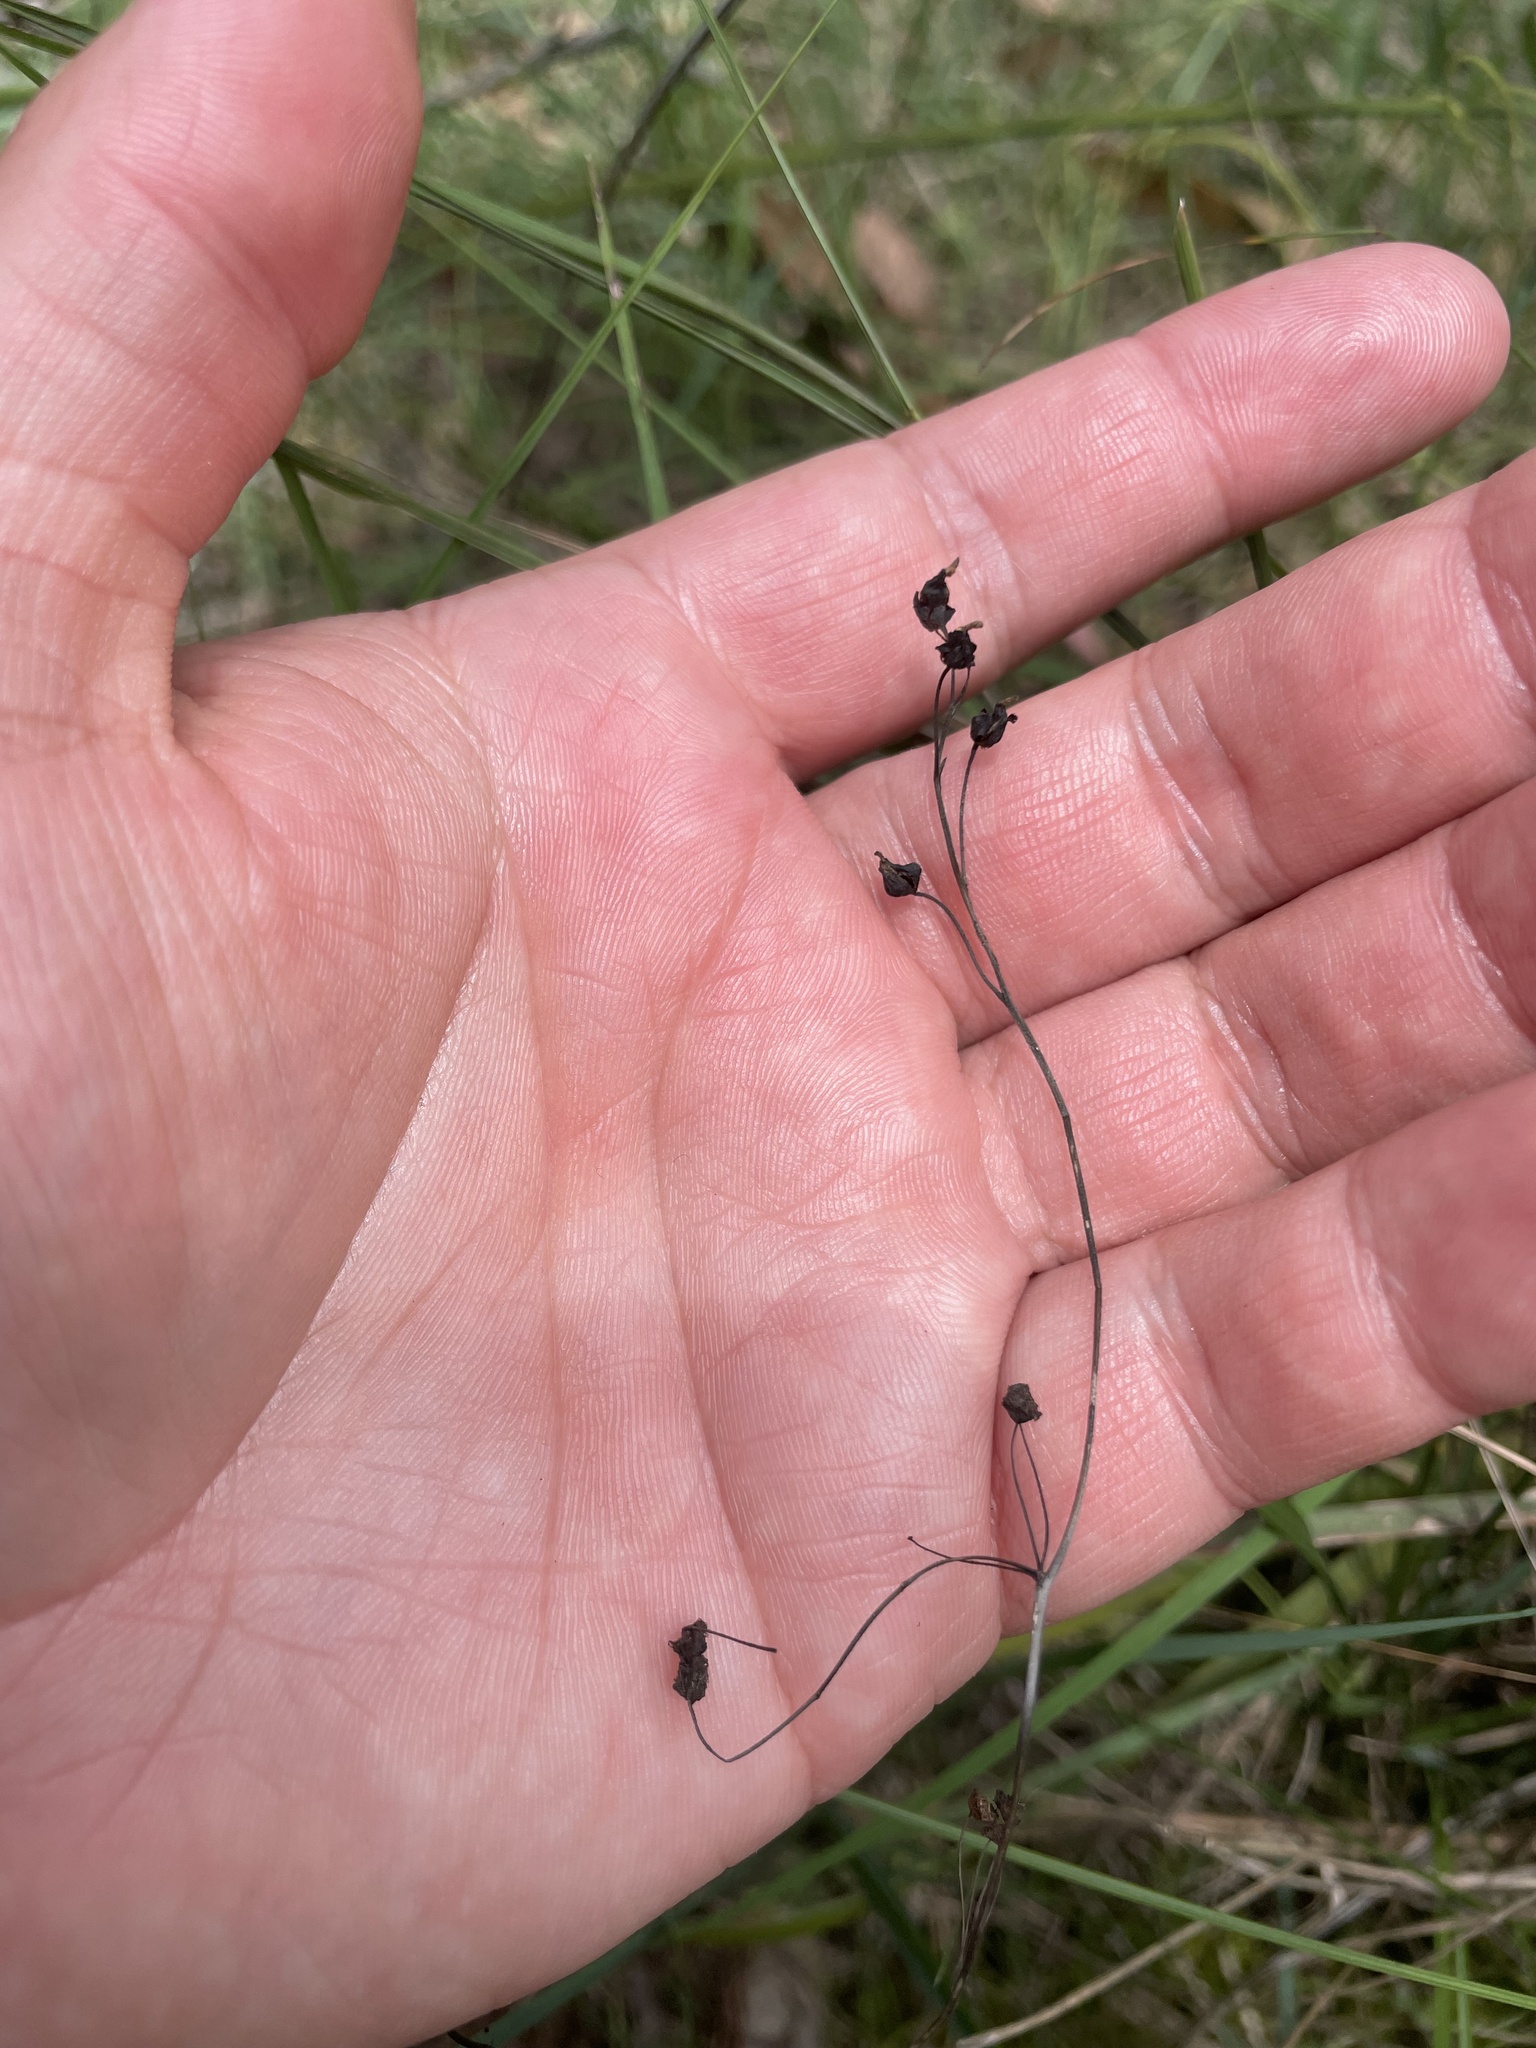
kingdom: Plantae
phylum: Tracheophyta
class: Magnoliopsida
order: Caryophyllales
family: Droseraceae
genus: Drosera
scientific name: Drosera peltata
